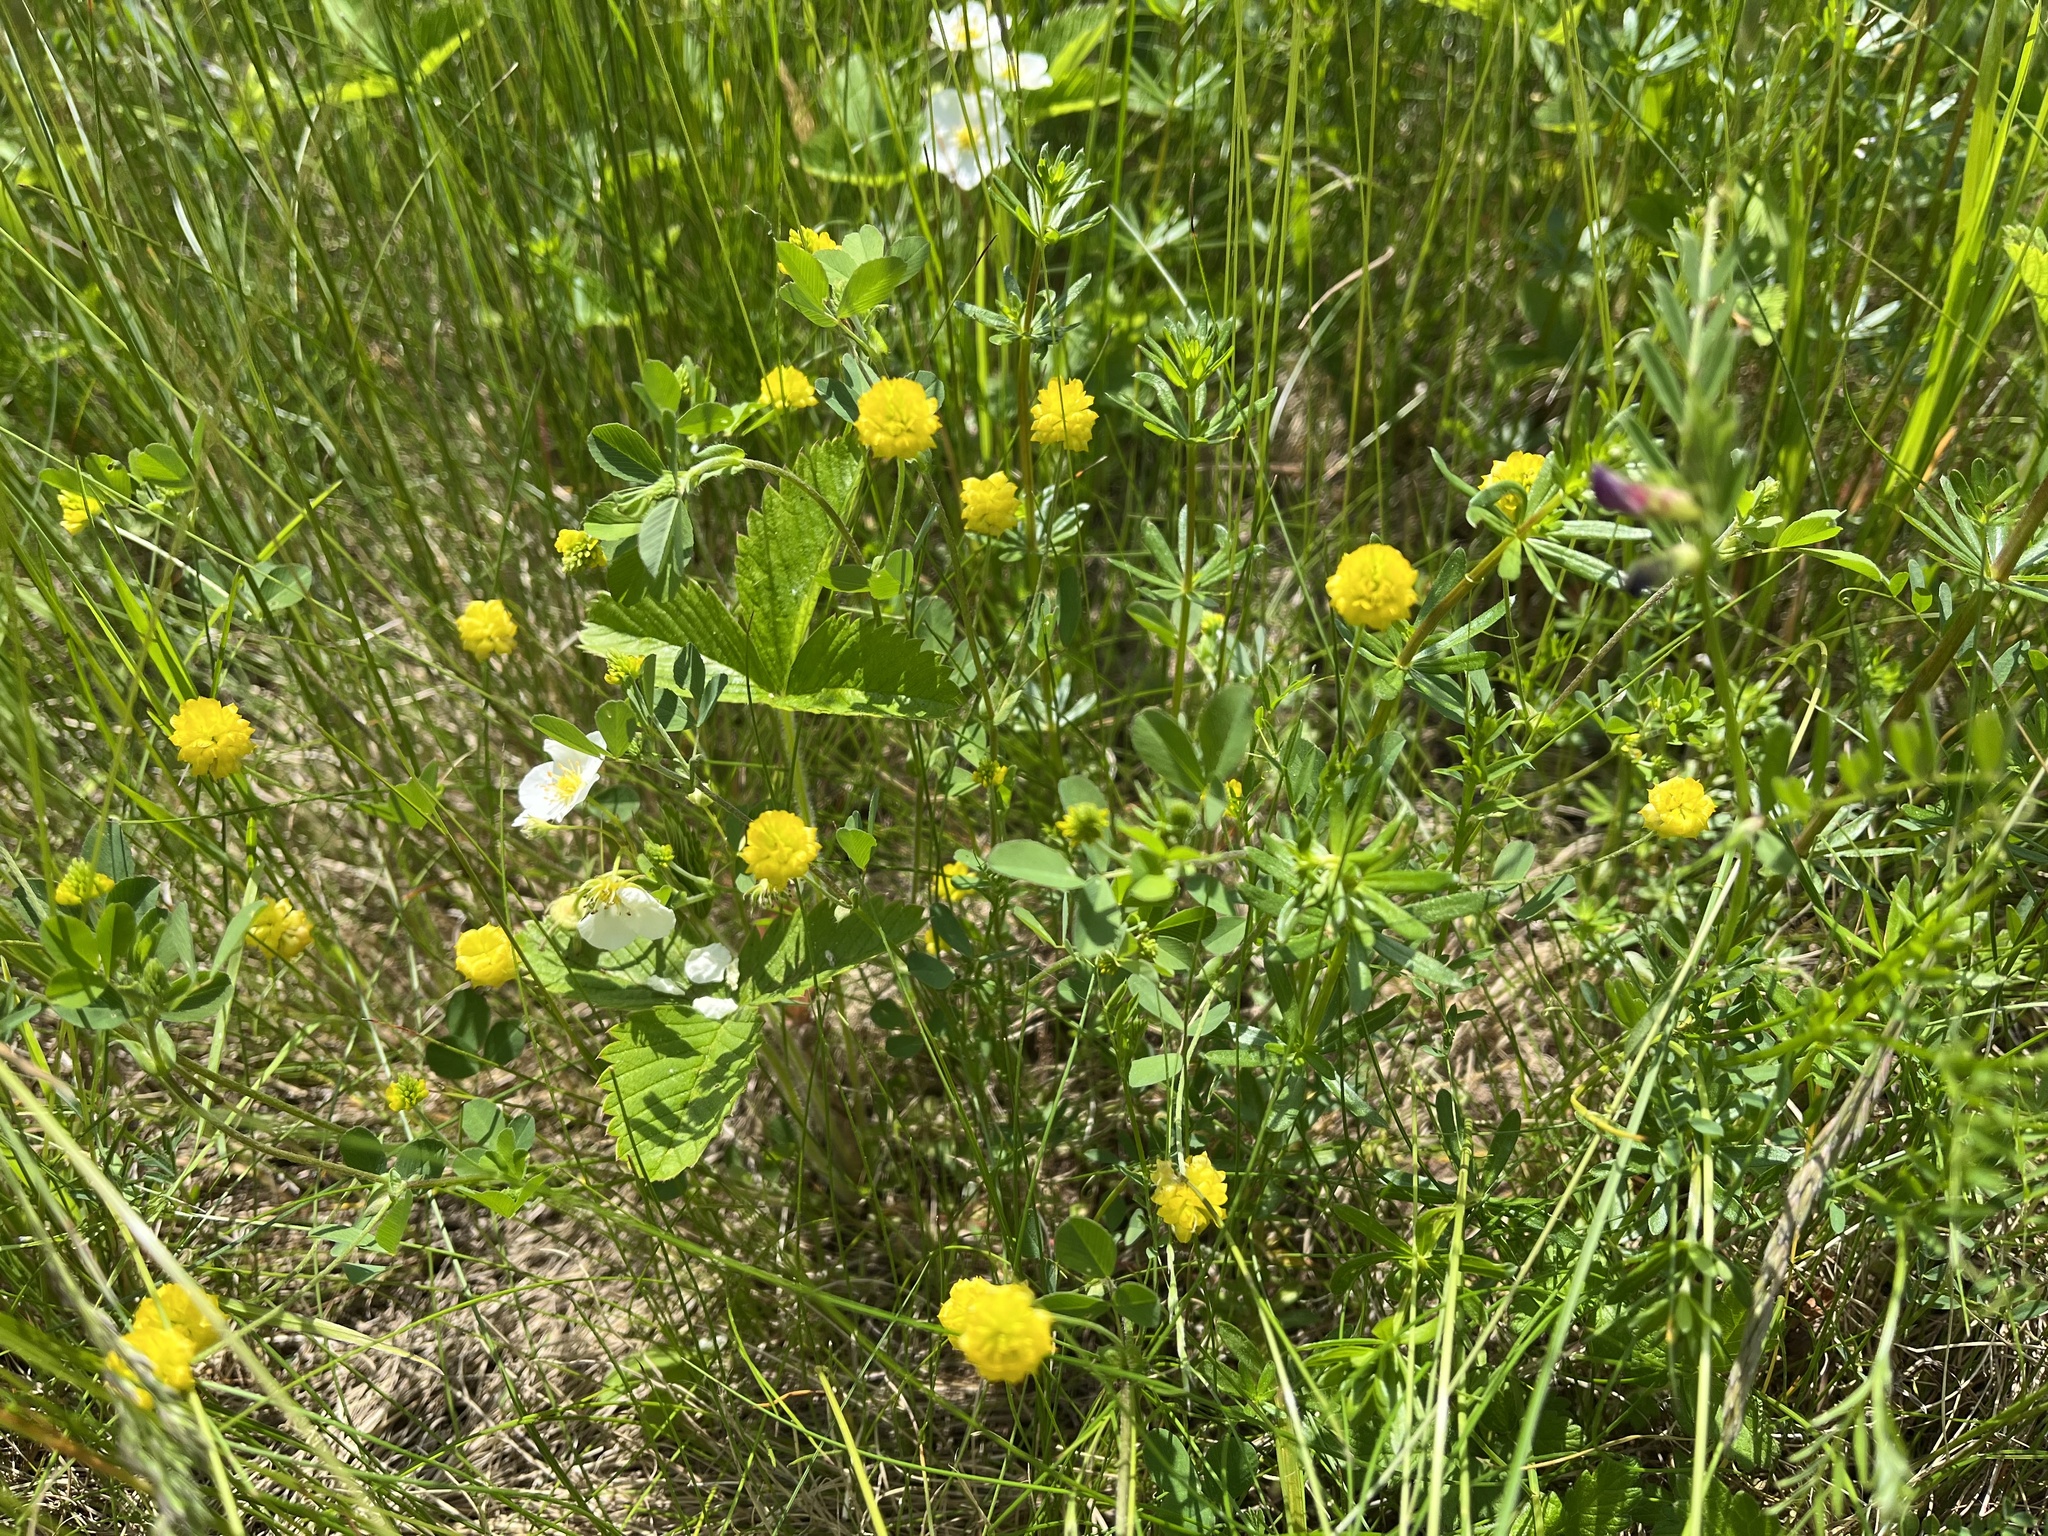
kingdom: Plantae
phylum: Tracheophyta
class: Magnoliopsida
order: Fabales
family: Fabaceae
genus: Trifolium
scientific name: Trifolium campestre
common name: Field clover
